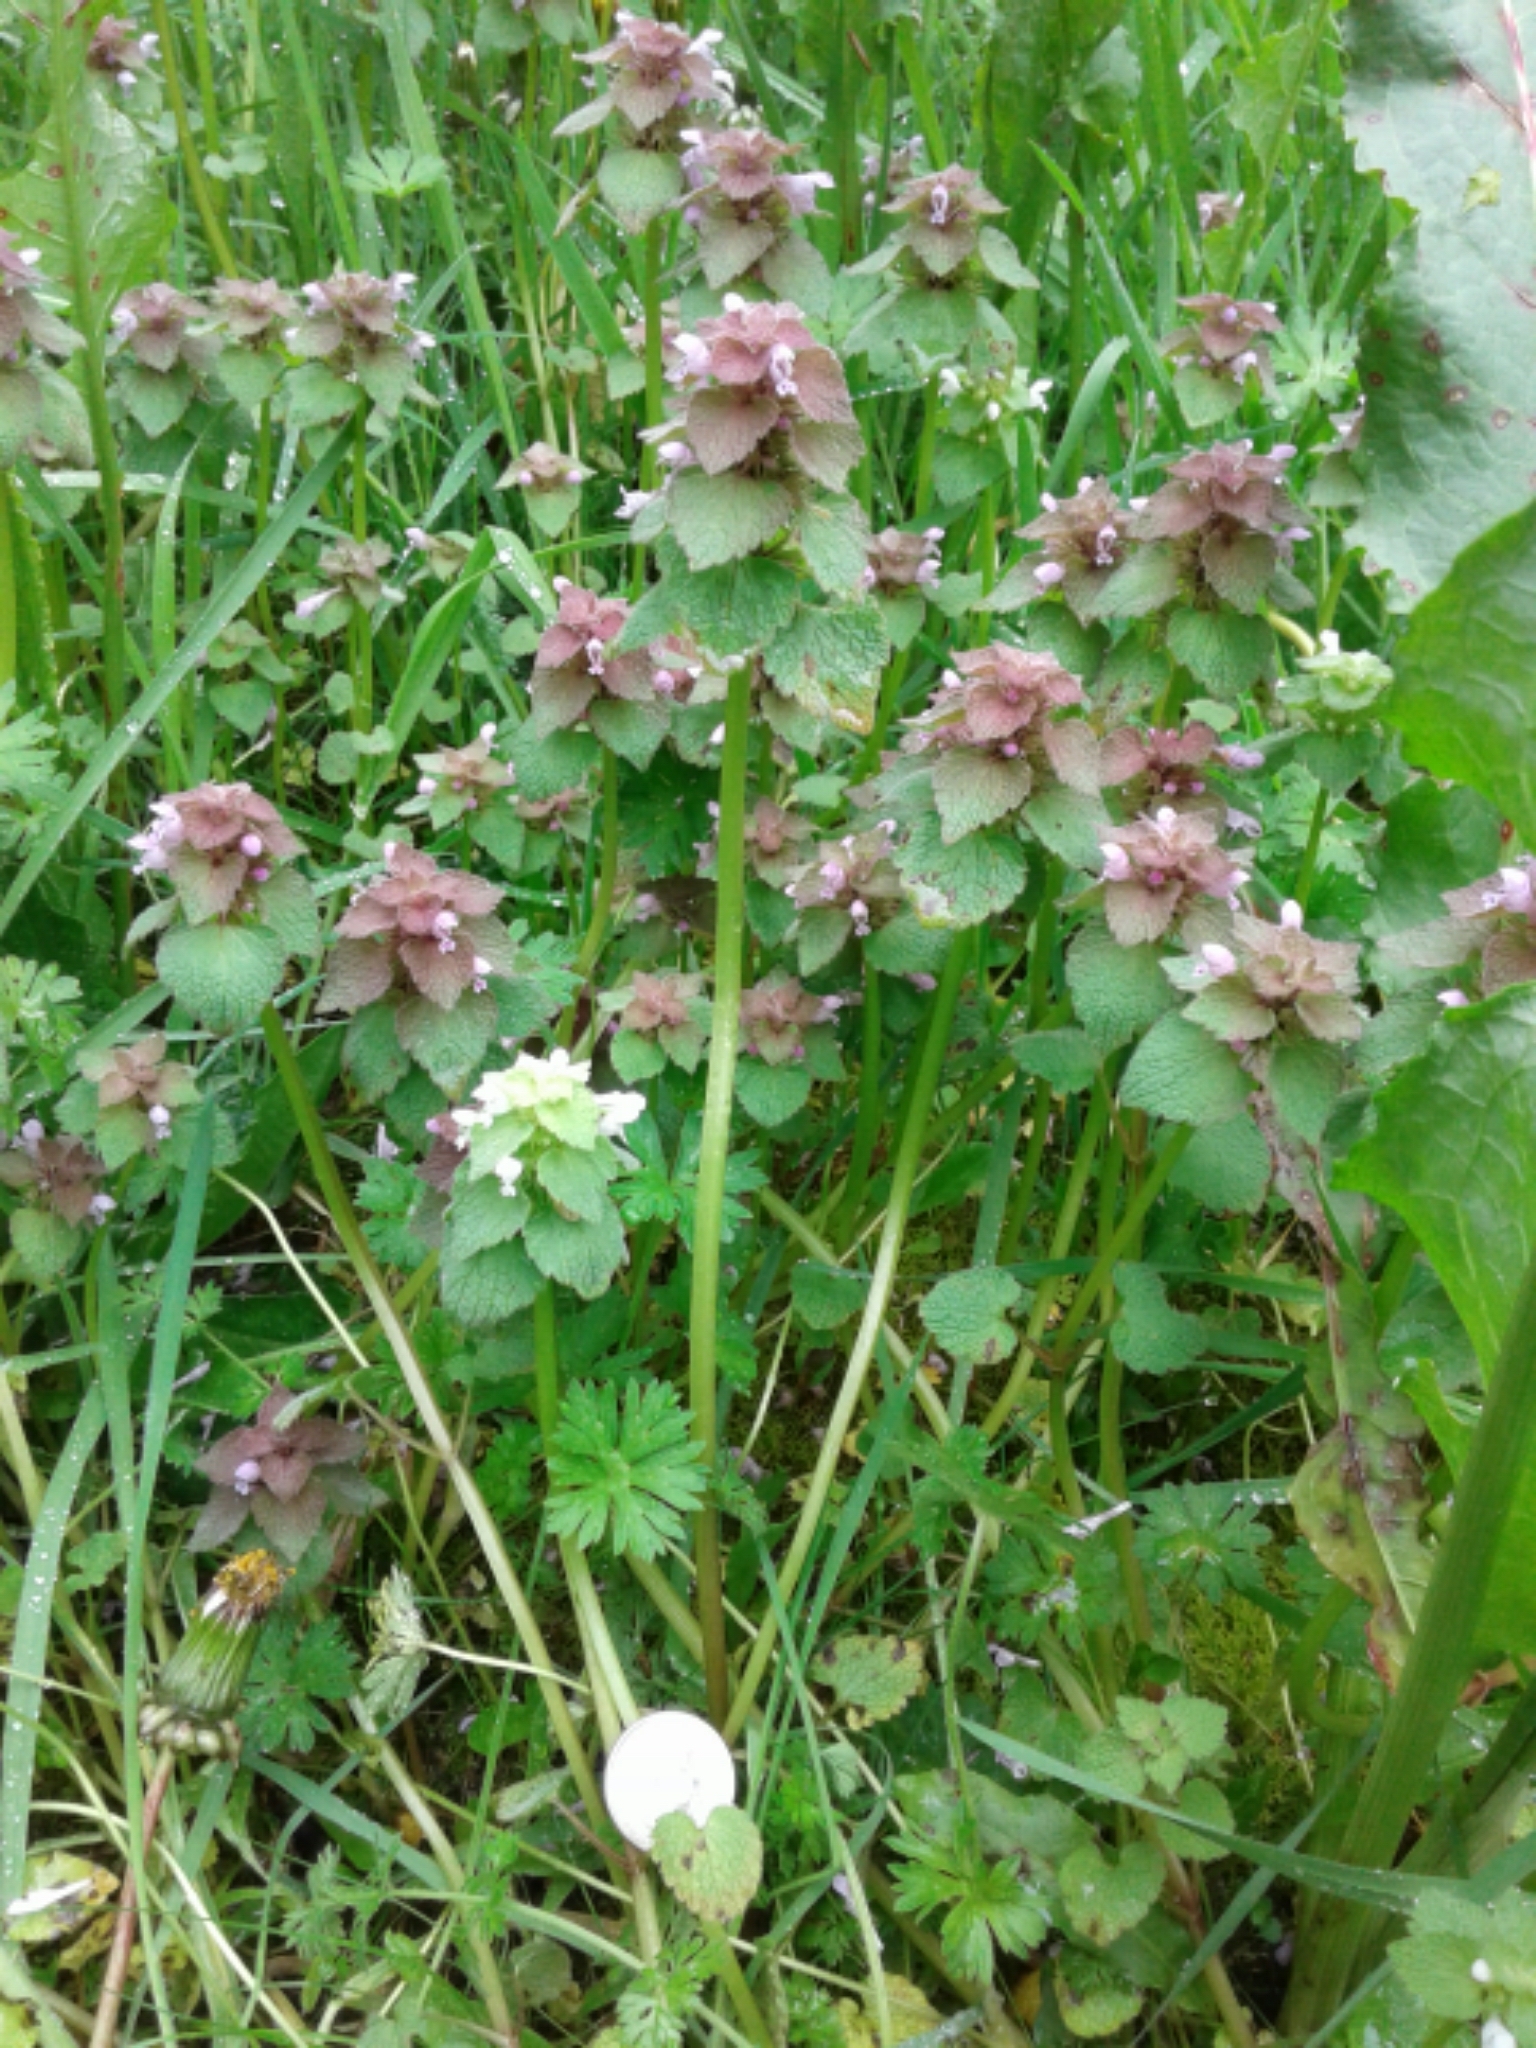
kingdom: Plantae
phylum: Tracheophyta
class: Magnoliopsida
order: Lamiales
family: Lamiaceae
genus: Lamium
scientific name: Lamium purpureum
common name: Red dead-nettle
